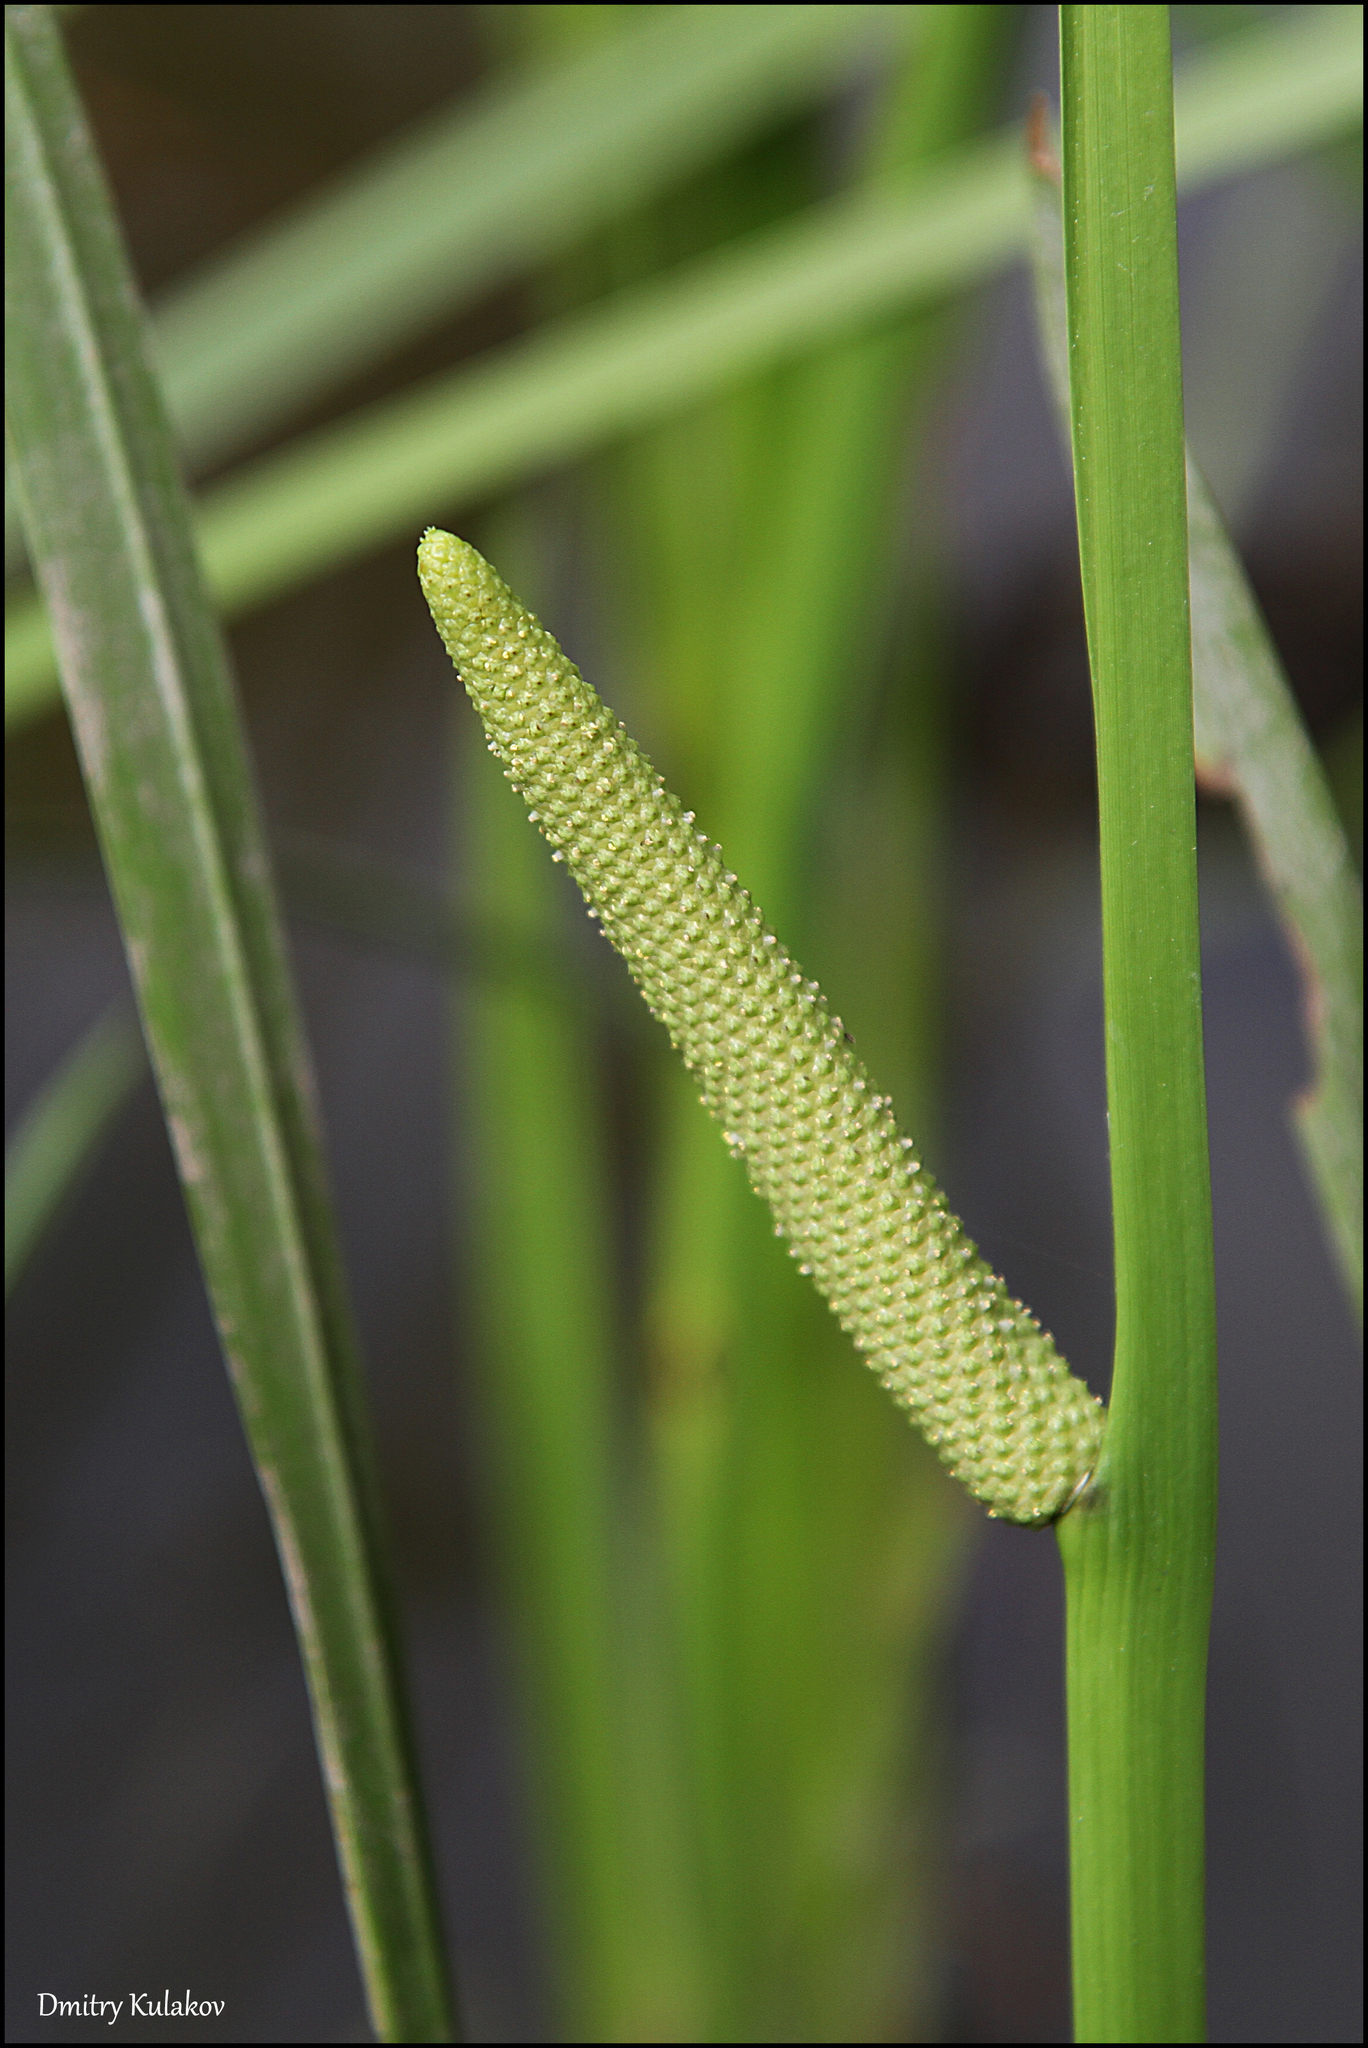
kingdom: Plantae
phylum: Tracheophyta
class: Liliopsida
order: Acorales
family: Acoraceae
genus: Acorus
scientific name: Acorus calamus
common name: Sweet-flag
